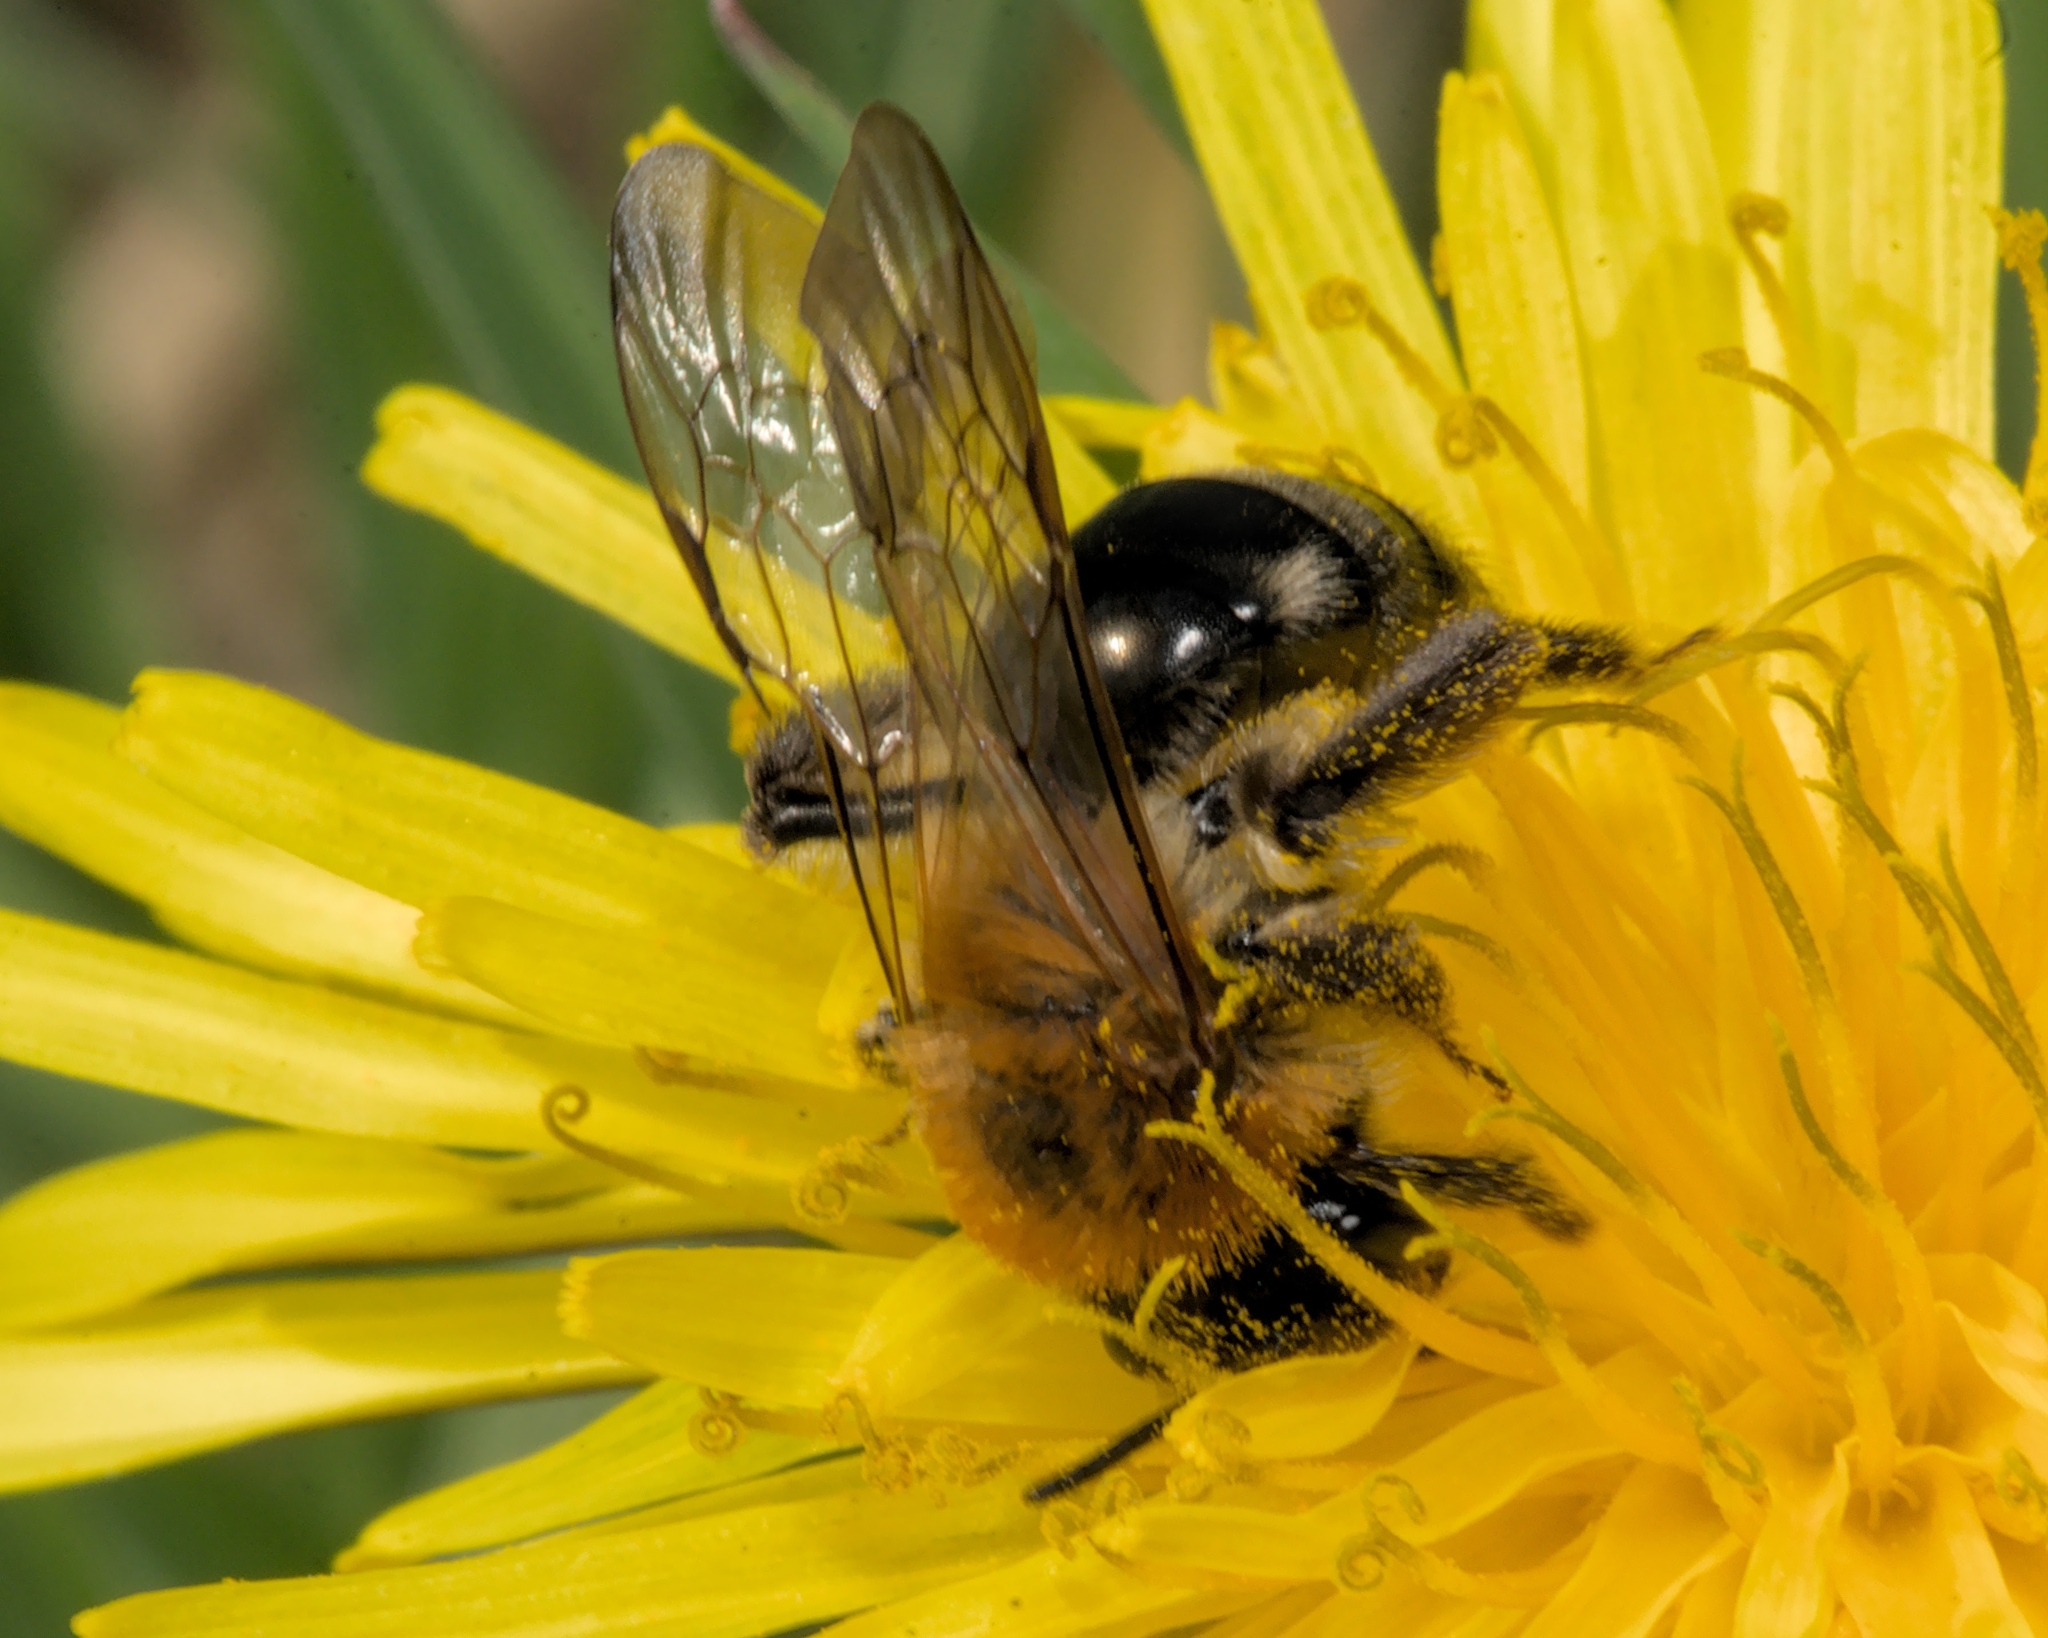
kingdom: Animalia
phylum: Arthropoda
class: Insecta
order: Hymenoptera
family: Andrenidae
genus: Andrena
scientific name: Andrena nitida
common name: Grey-patched mining bee
